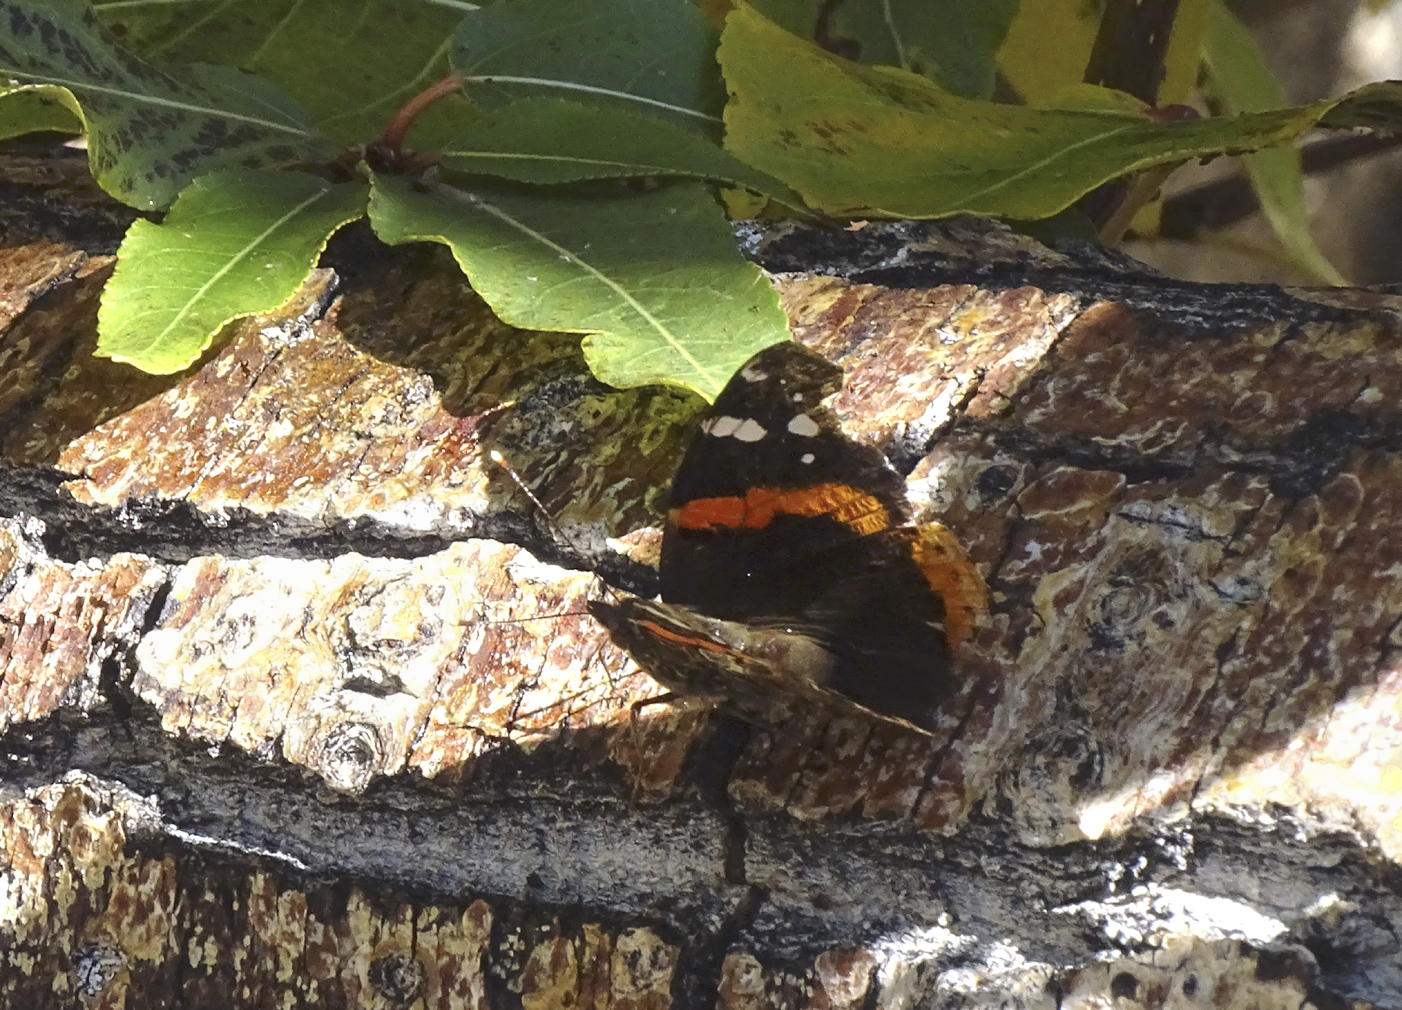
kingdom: Animalia
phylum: Arthropoda
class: Insecta
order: Lepidoptera
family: Nymphalidae
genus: Vanessa
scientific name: Vanessa atalanta
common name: Red admiral
